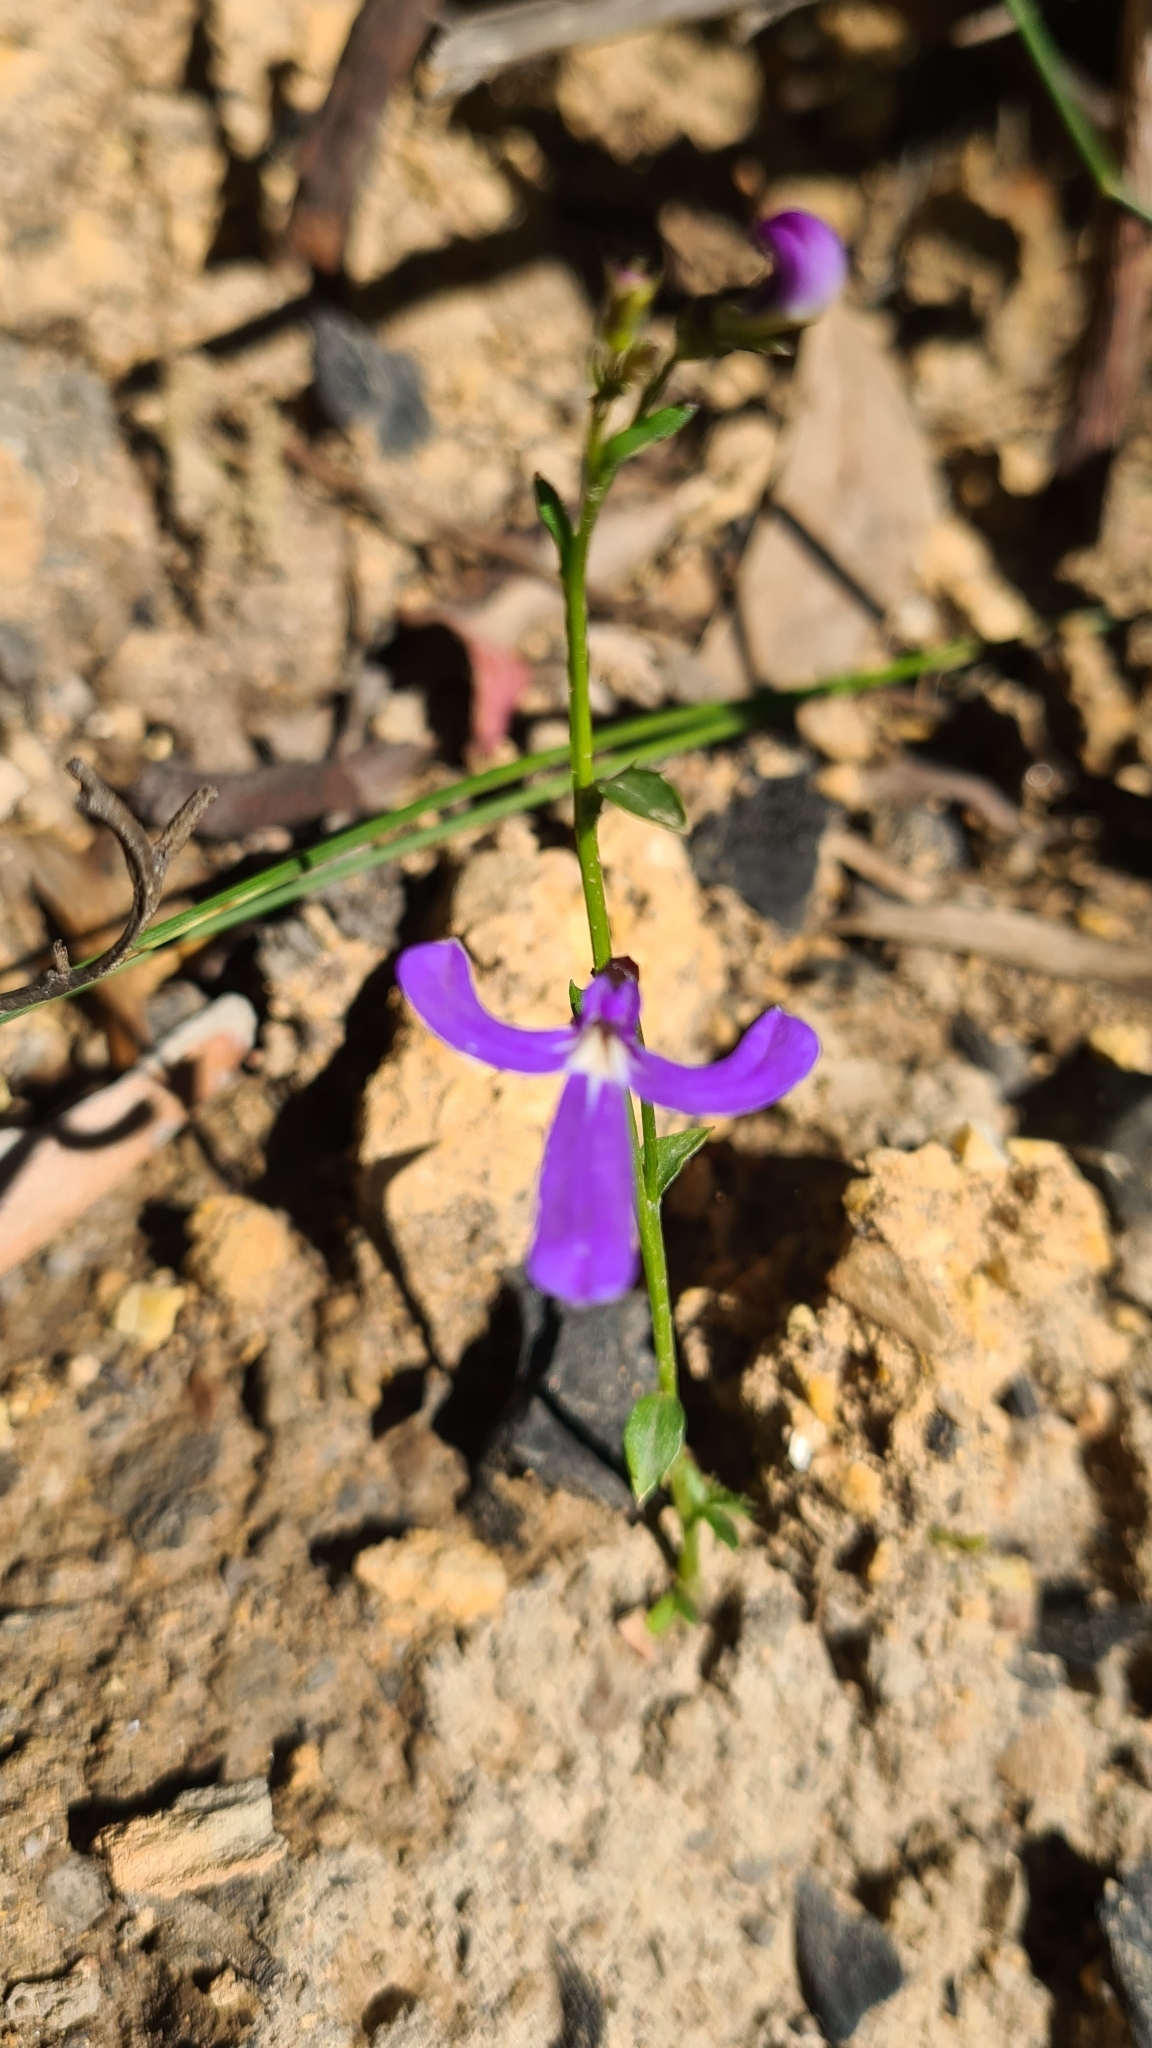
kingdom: Plantae
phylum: Tracheophyta
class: Magnoliopsida
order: Asterales
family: Campanulaceae
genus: Lobelia
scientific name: Lobelia dentata
